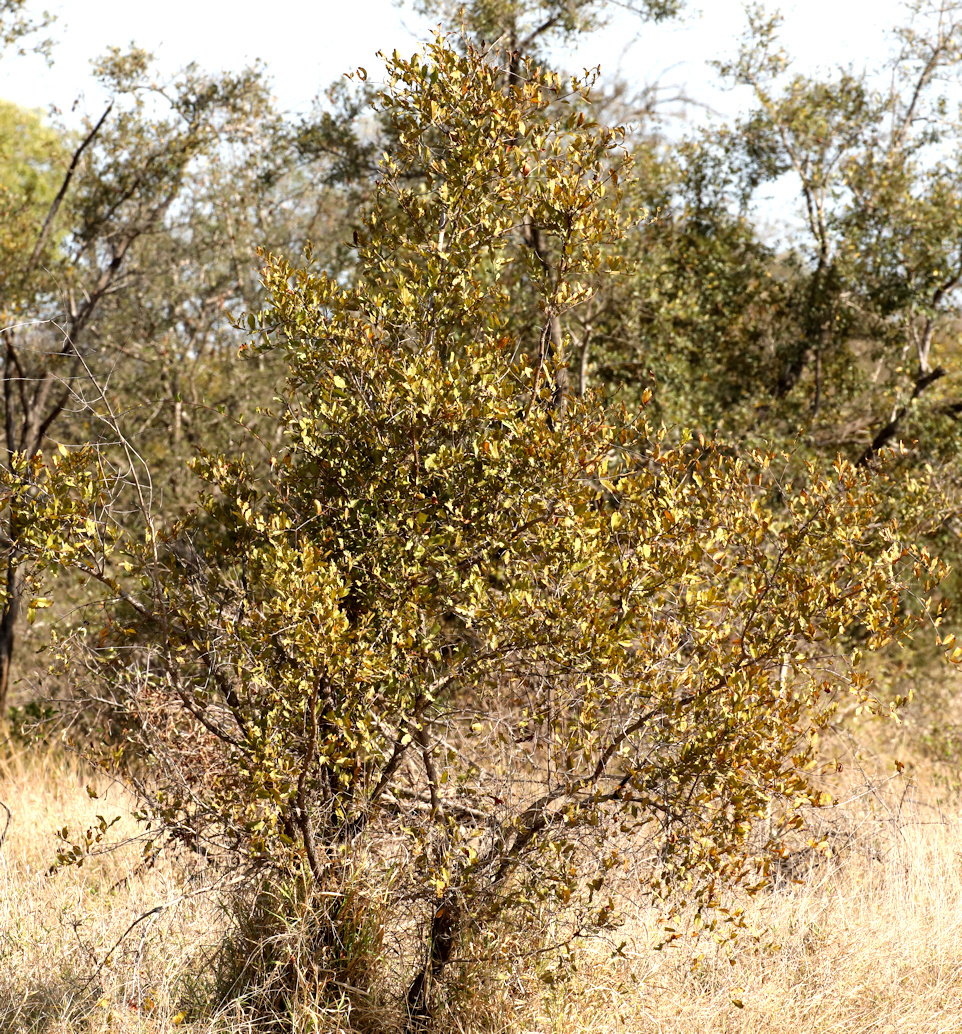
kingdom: Plantae
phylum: Tracheophyta
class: Magnoliopsida
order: Myrtales
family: Combretaceae
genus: Combretum
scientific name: Combretum apiculatum
